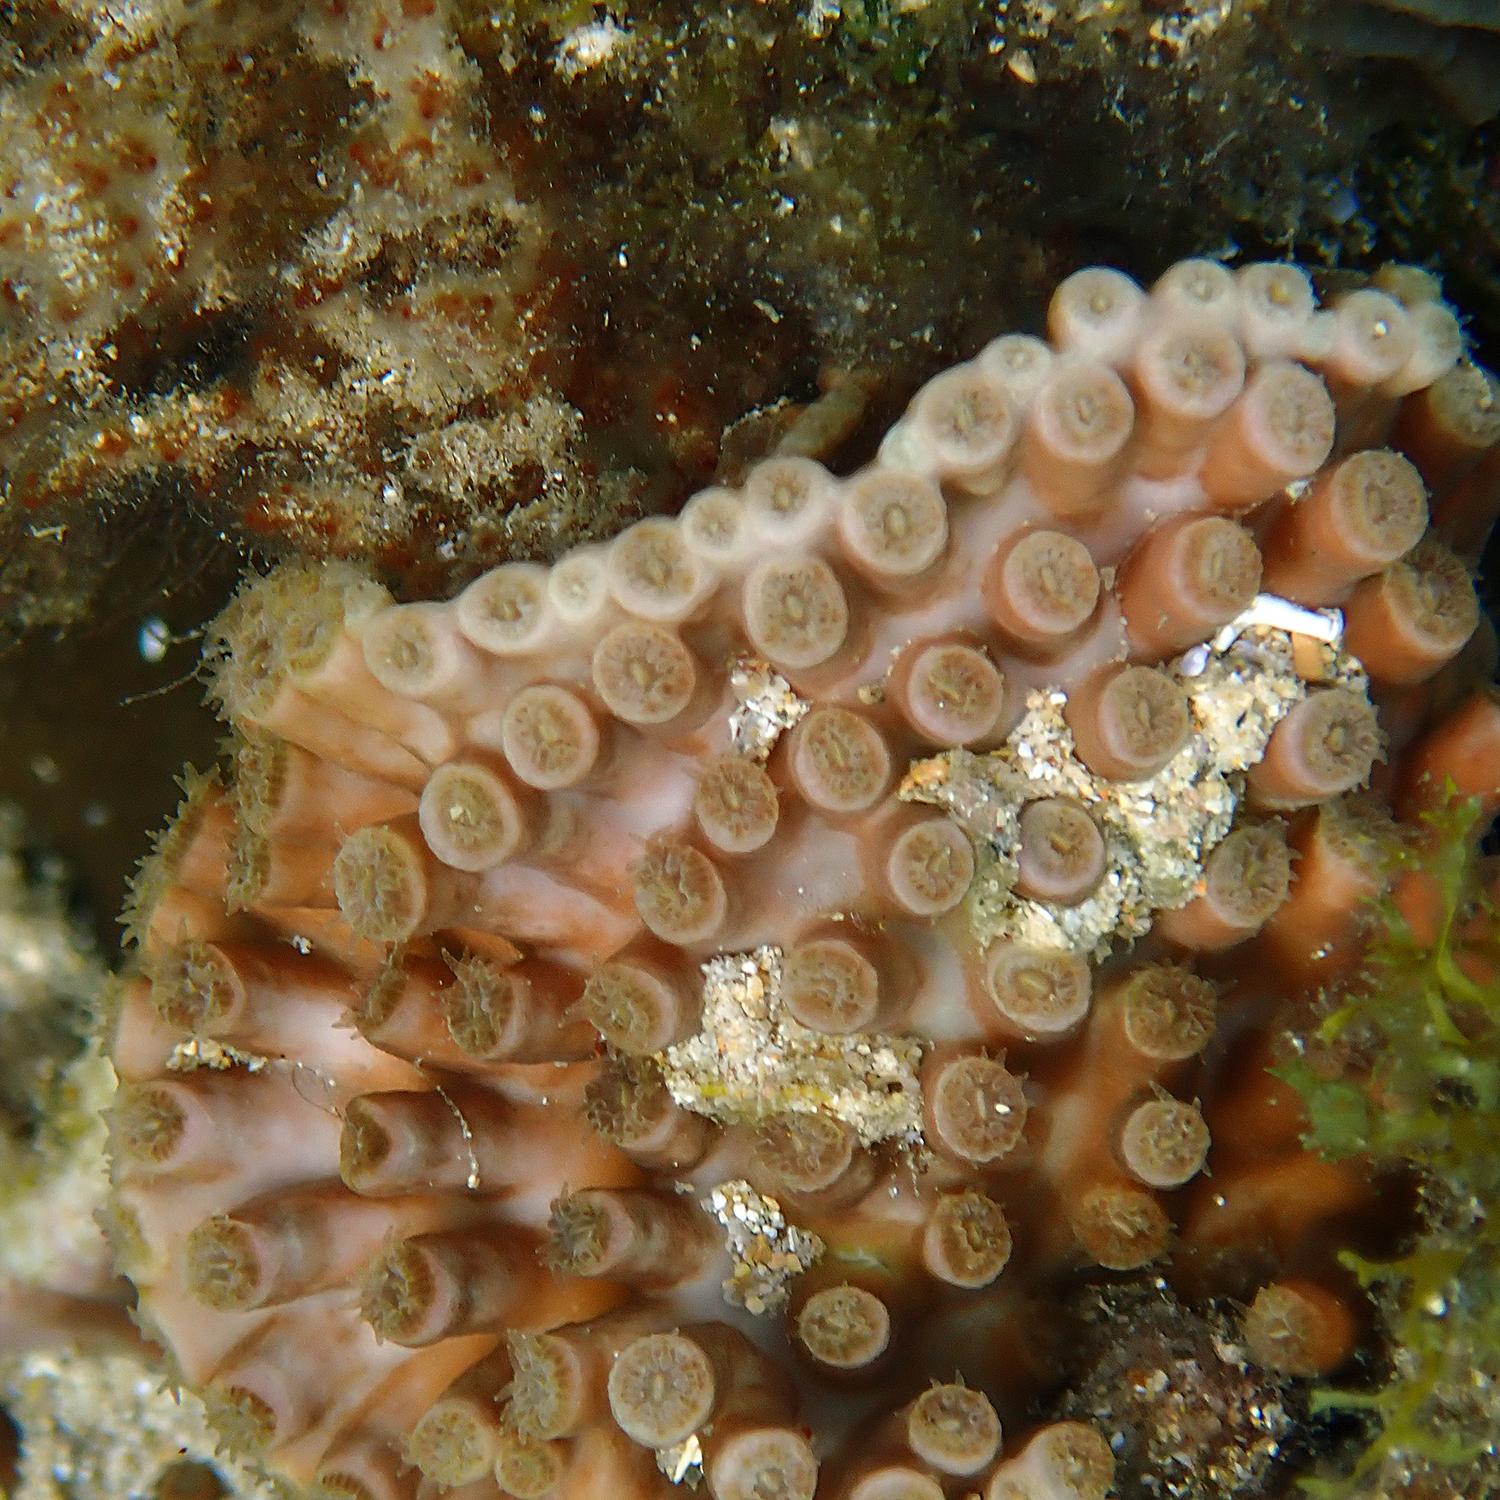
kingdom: Animalia
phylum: Cnidaria
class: Anthozoa
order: Scleractinia
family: Dendrophylliidae
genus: Turbinaria
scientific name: Turbinaria heronensis
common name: Disc coral
